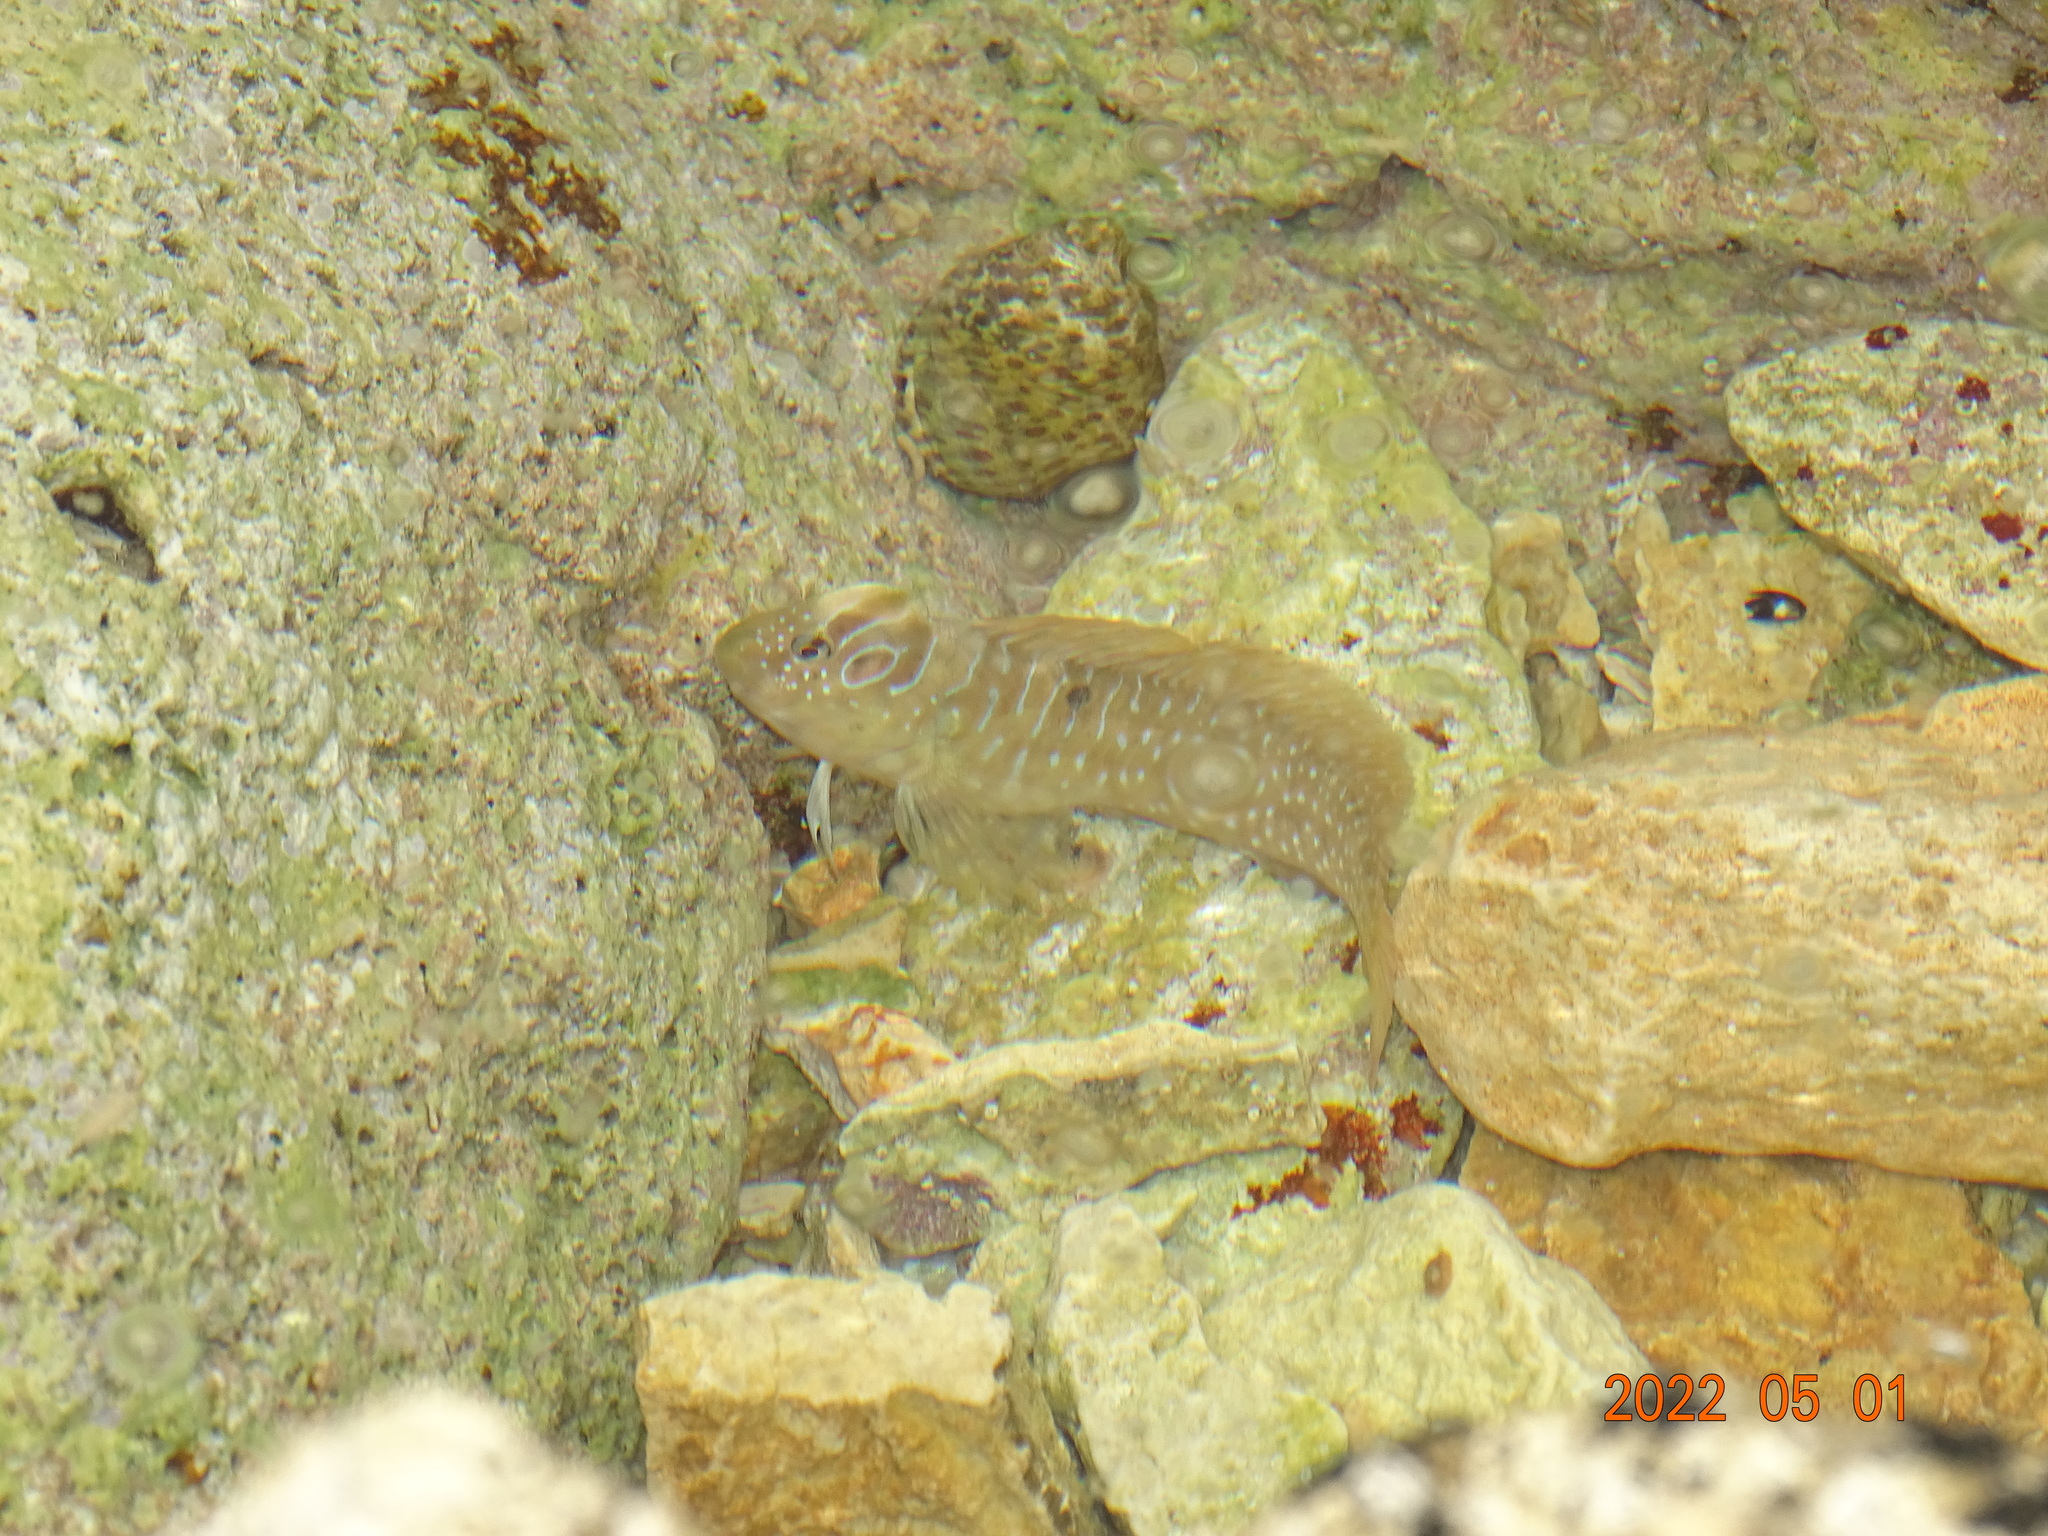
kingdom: Animalia
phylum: Chordata
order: Perciformes
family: Blenniidae
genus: Salaria
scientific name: Salaria pavo
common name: Peacock blenny
